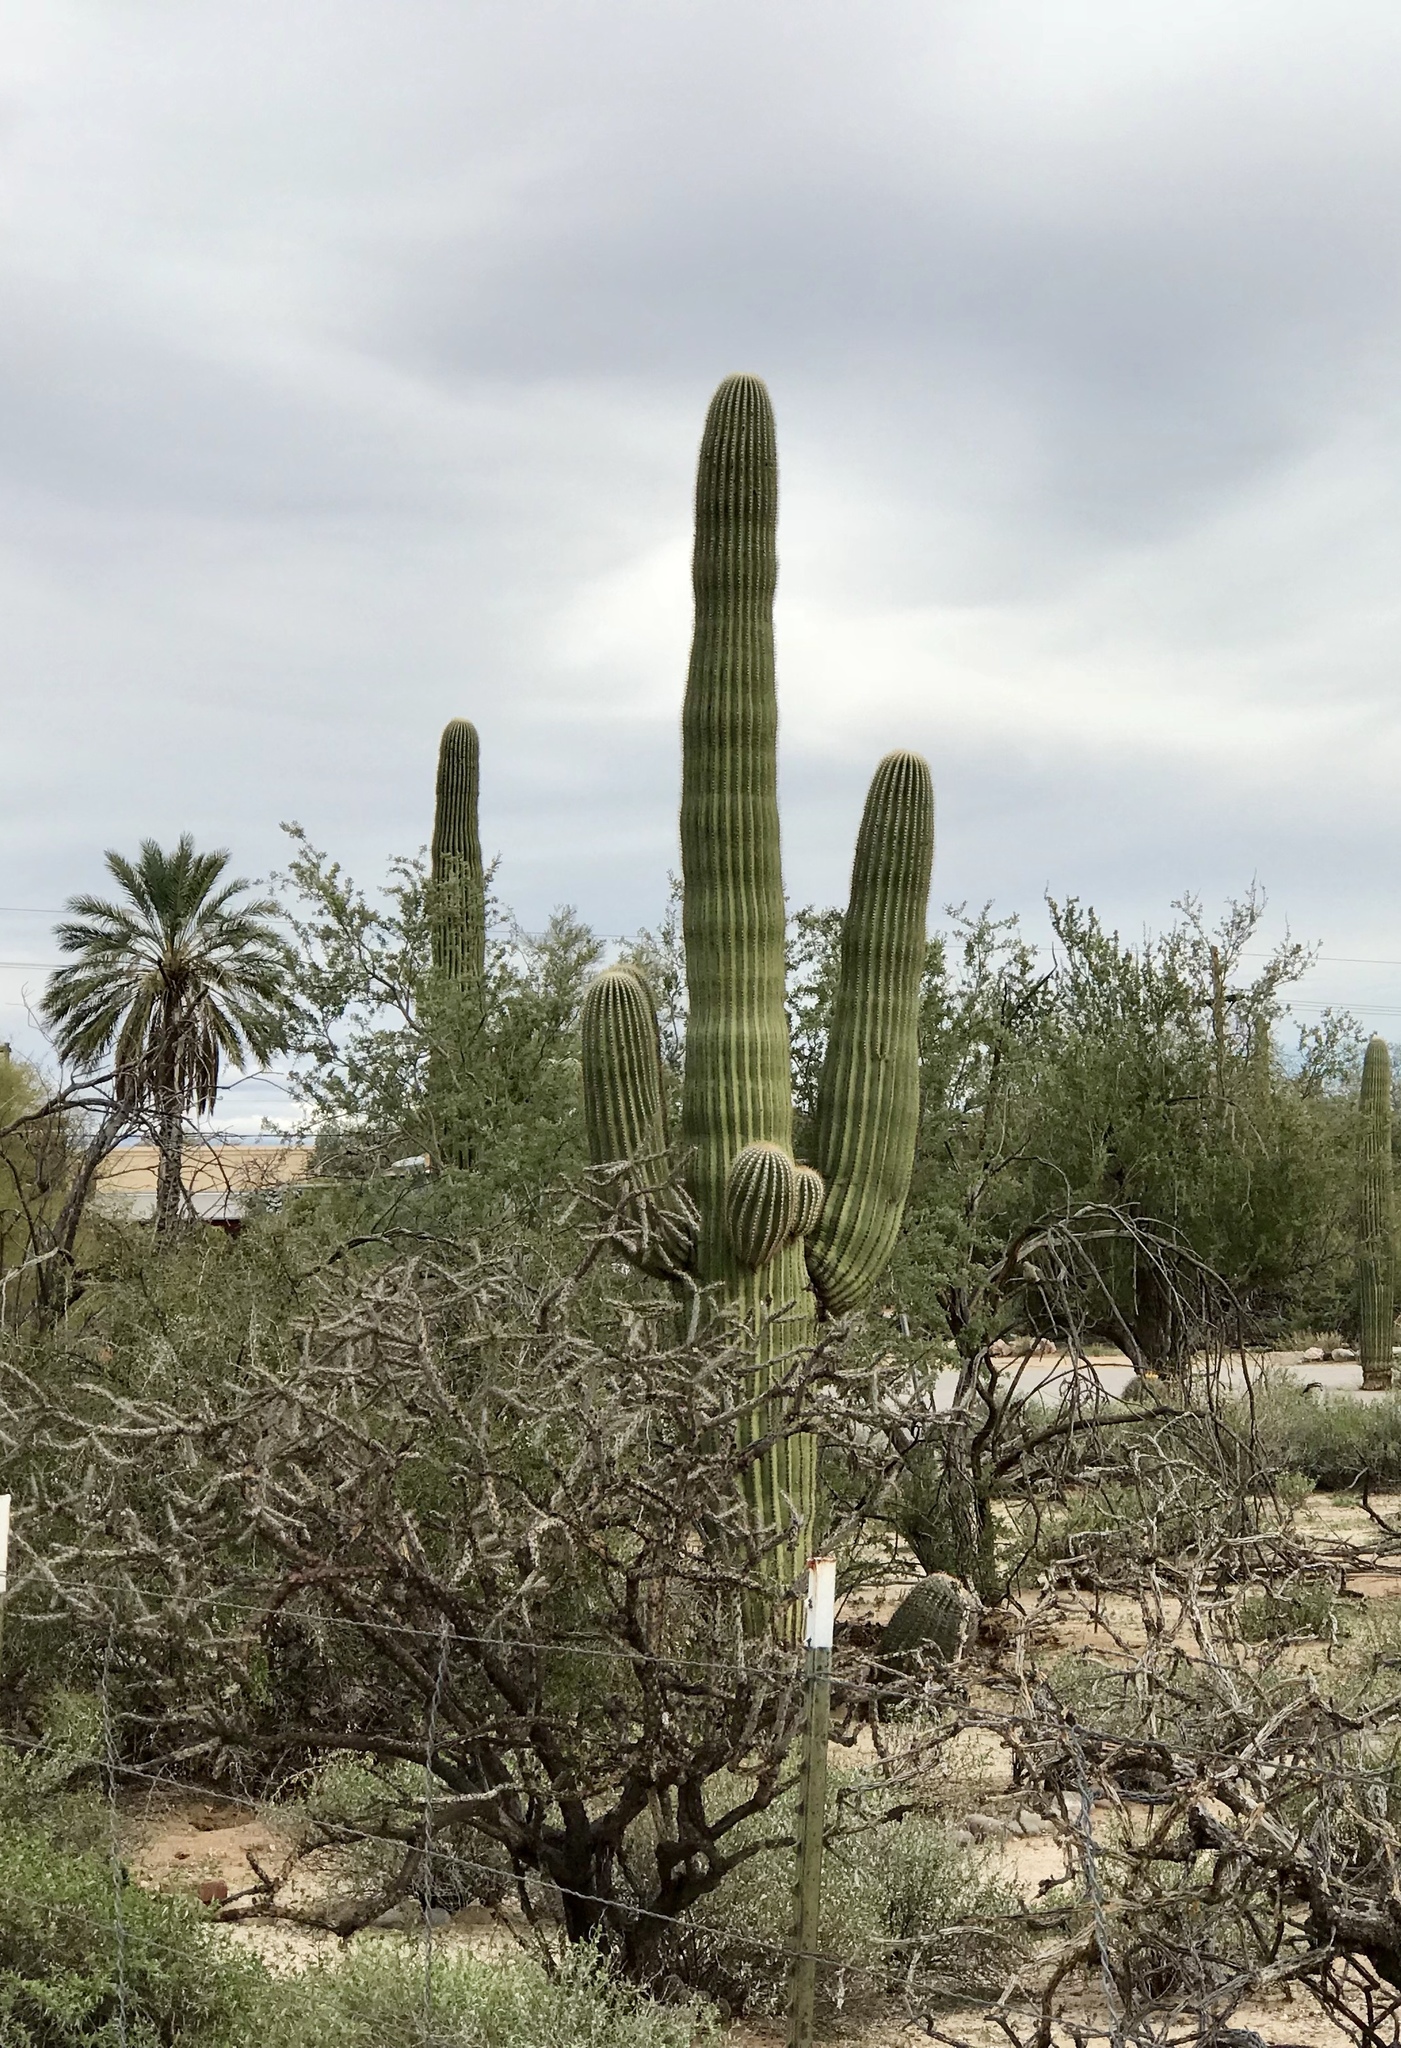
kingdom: Plantae
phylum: Tracheophyta
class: Magnoliopsida
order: Caryophyllales
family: Cactaceae
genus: Carnegiea
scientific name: Carnegiea gigantea
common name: Saguaro
